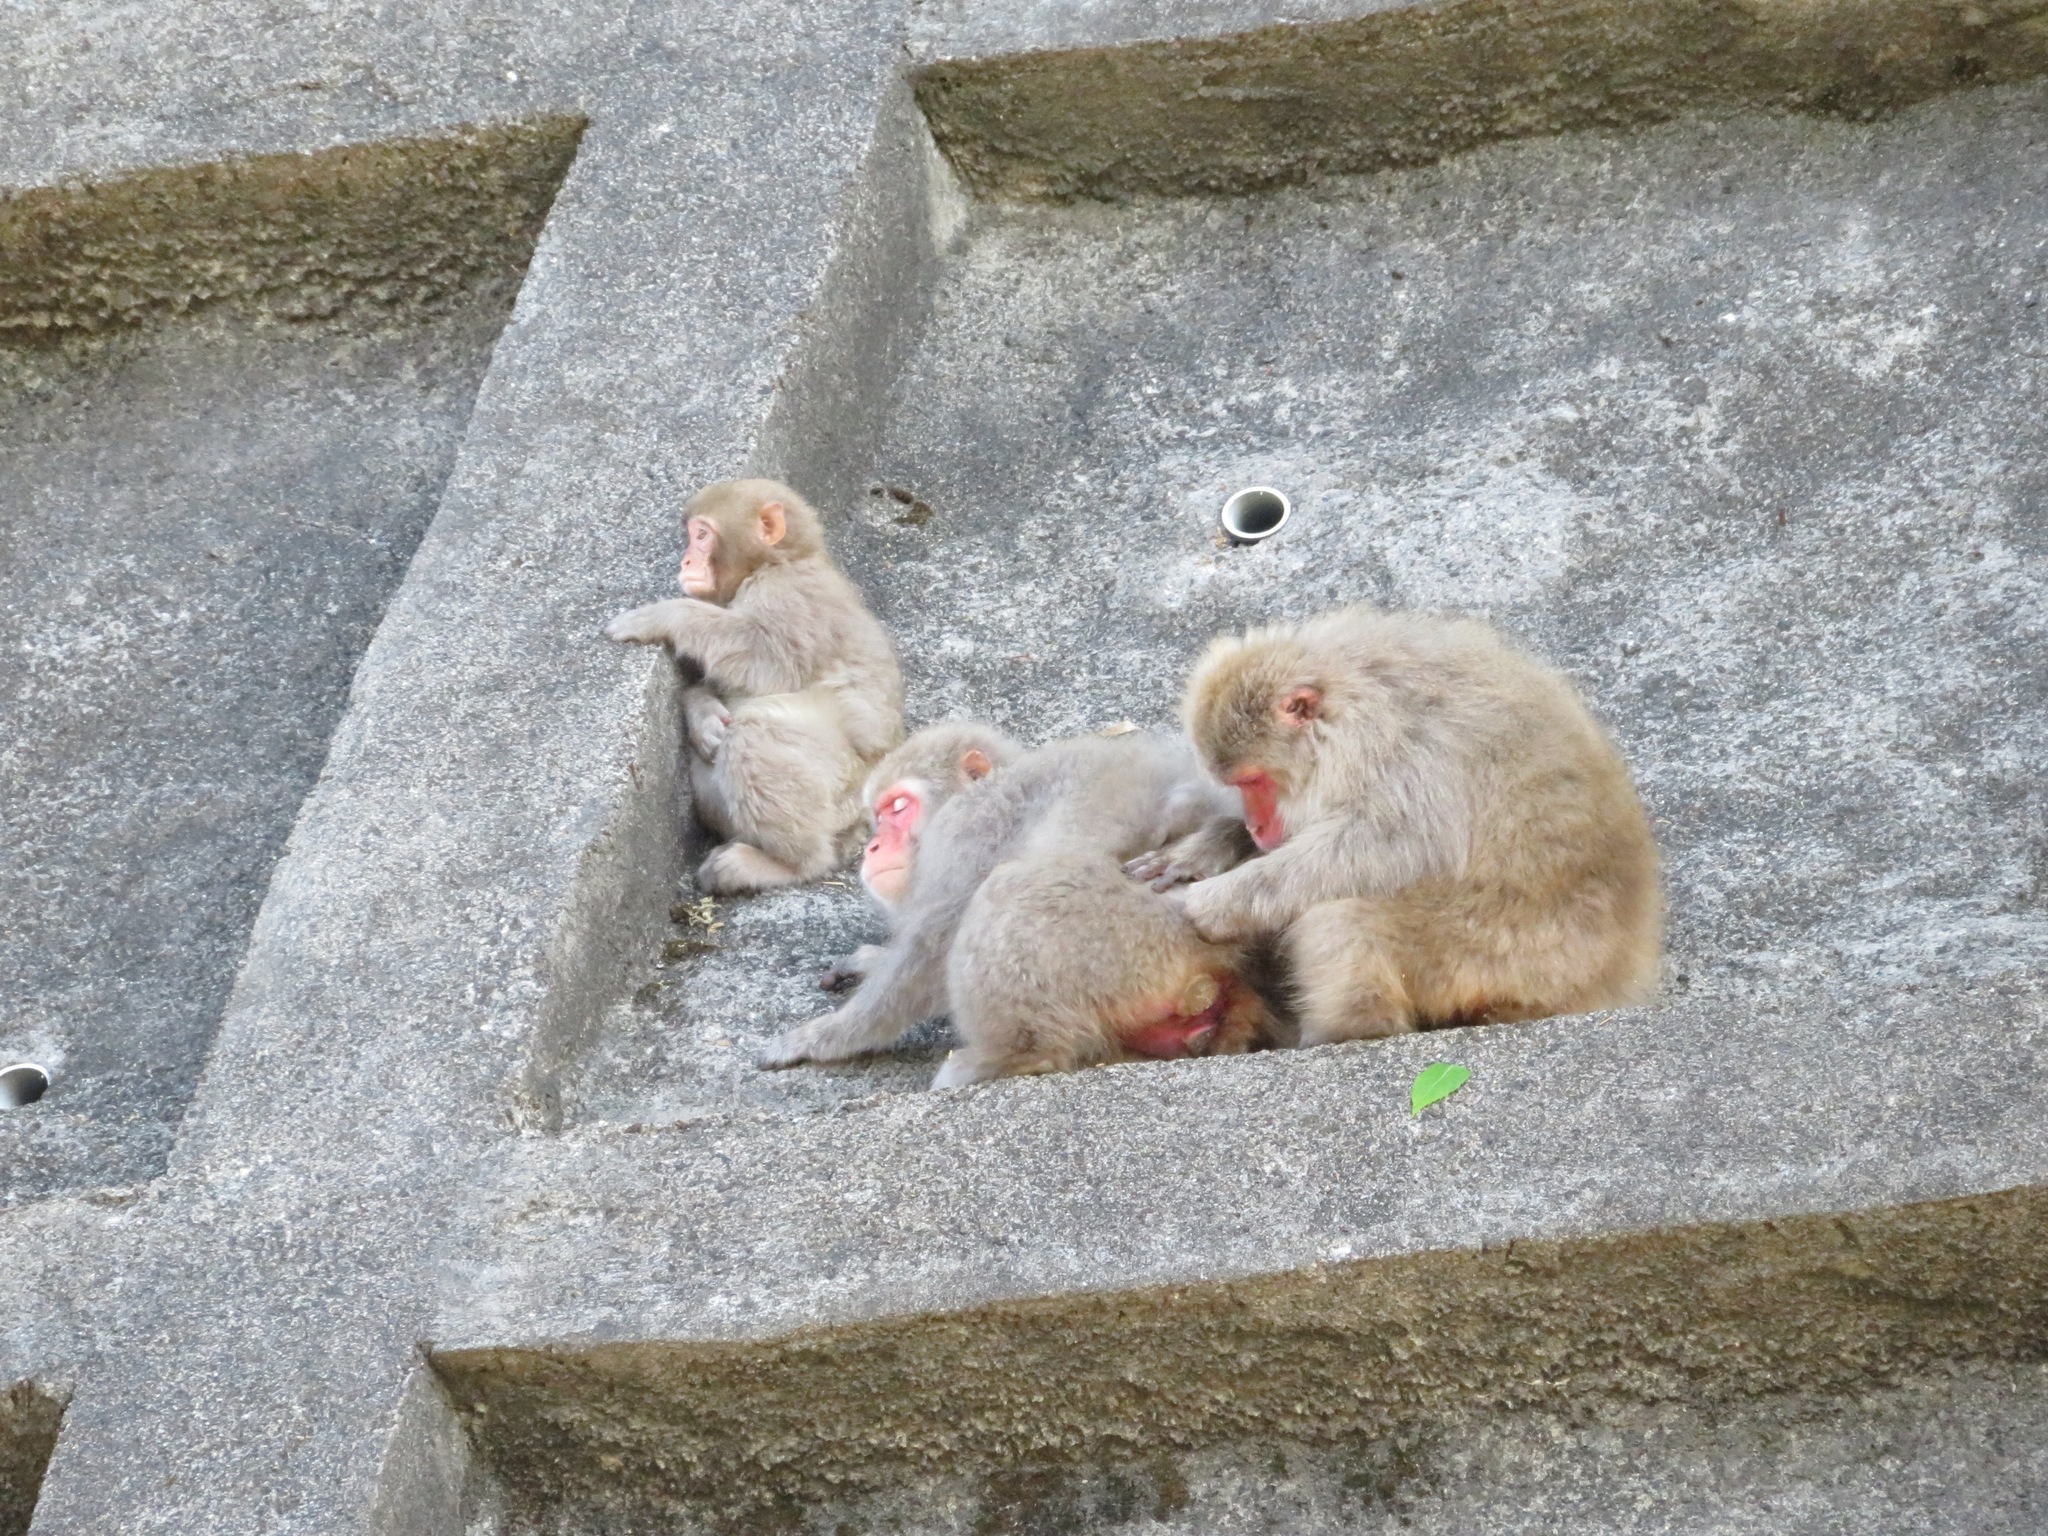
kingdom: Animalia
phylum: Chordata
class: Mammalia
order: Primates
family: Cercopithecidae
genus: Macaca
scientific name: Macaca fuscata
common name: Japanese macaque
